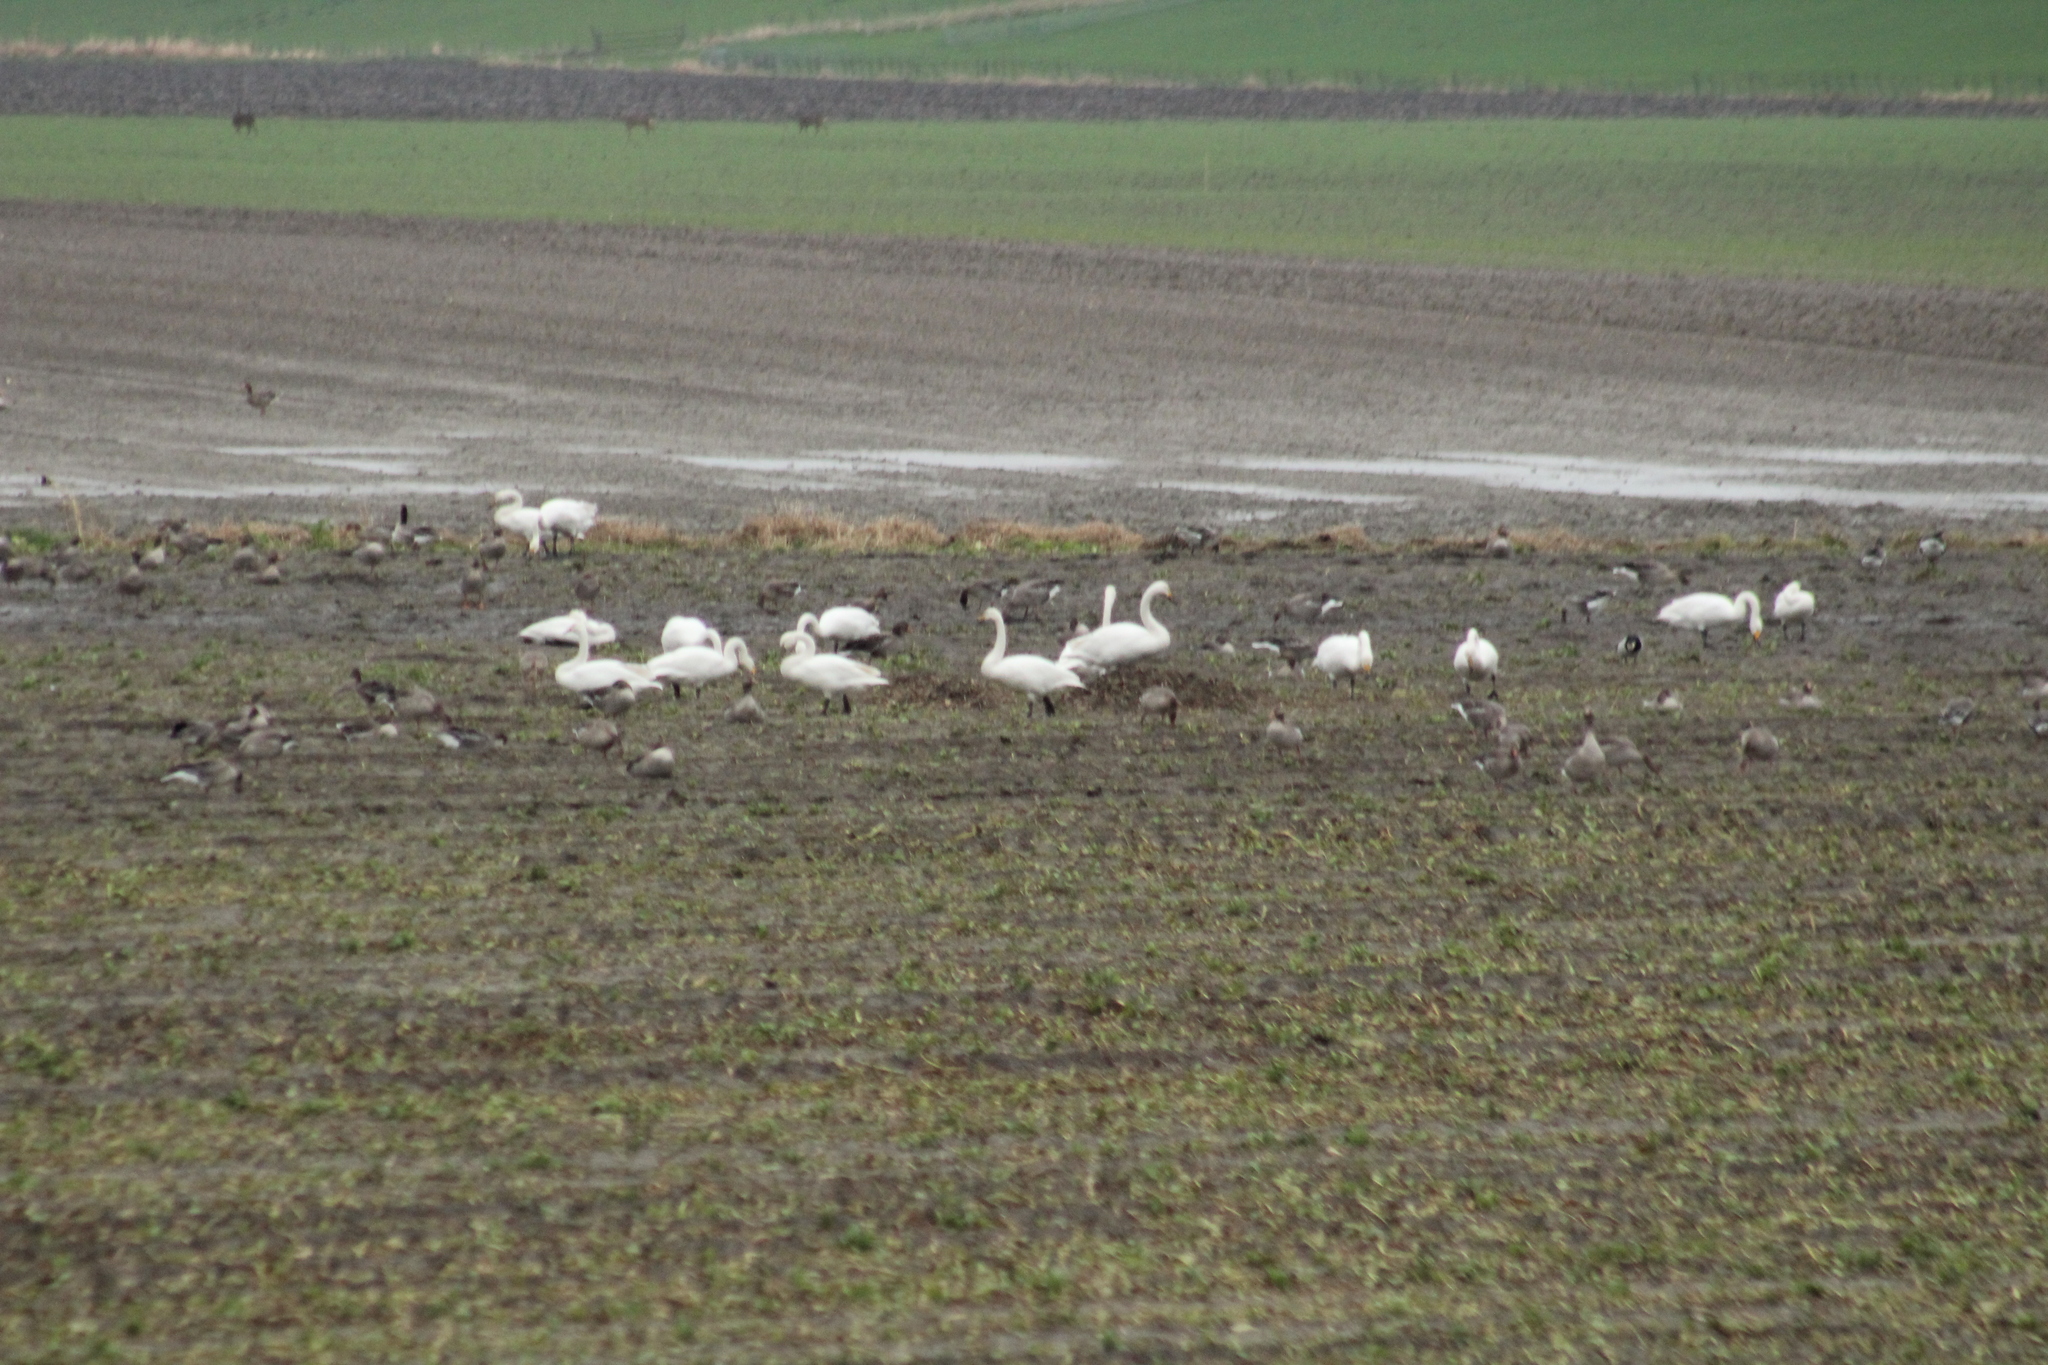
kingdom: Animalia
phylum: Chordata
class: Aves
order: Anseriformes
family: Anatidae
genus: Cygnus
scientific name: Cygnus cygnus
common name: Whooper swan
